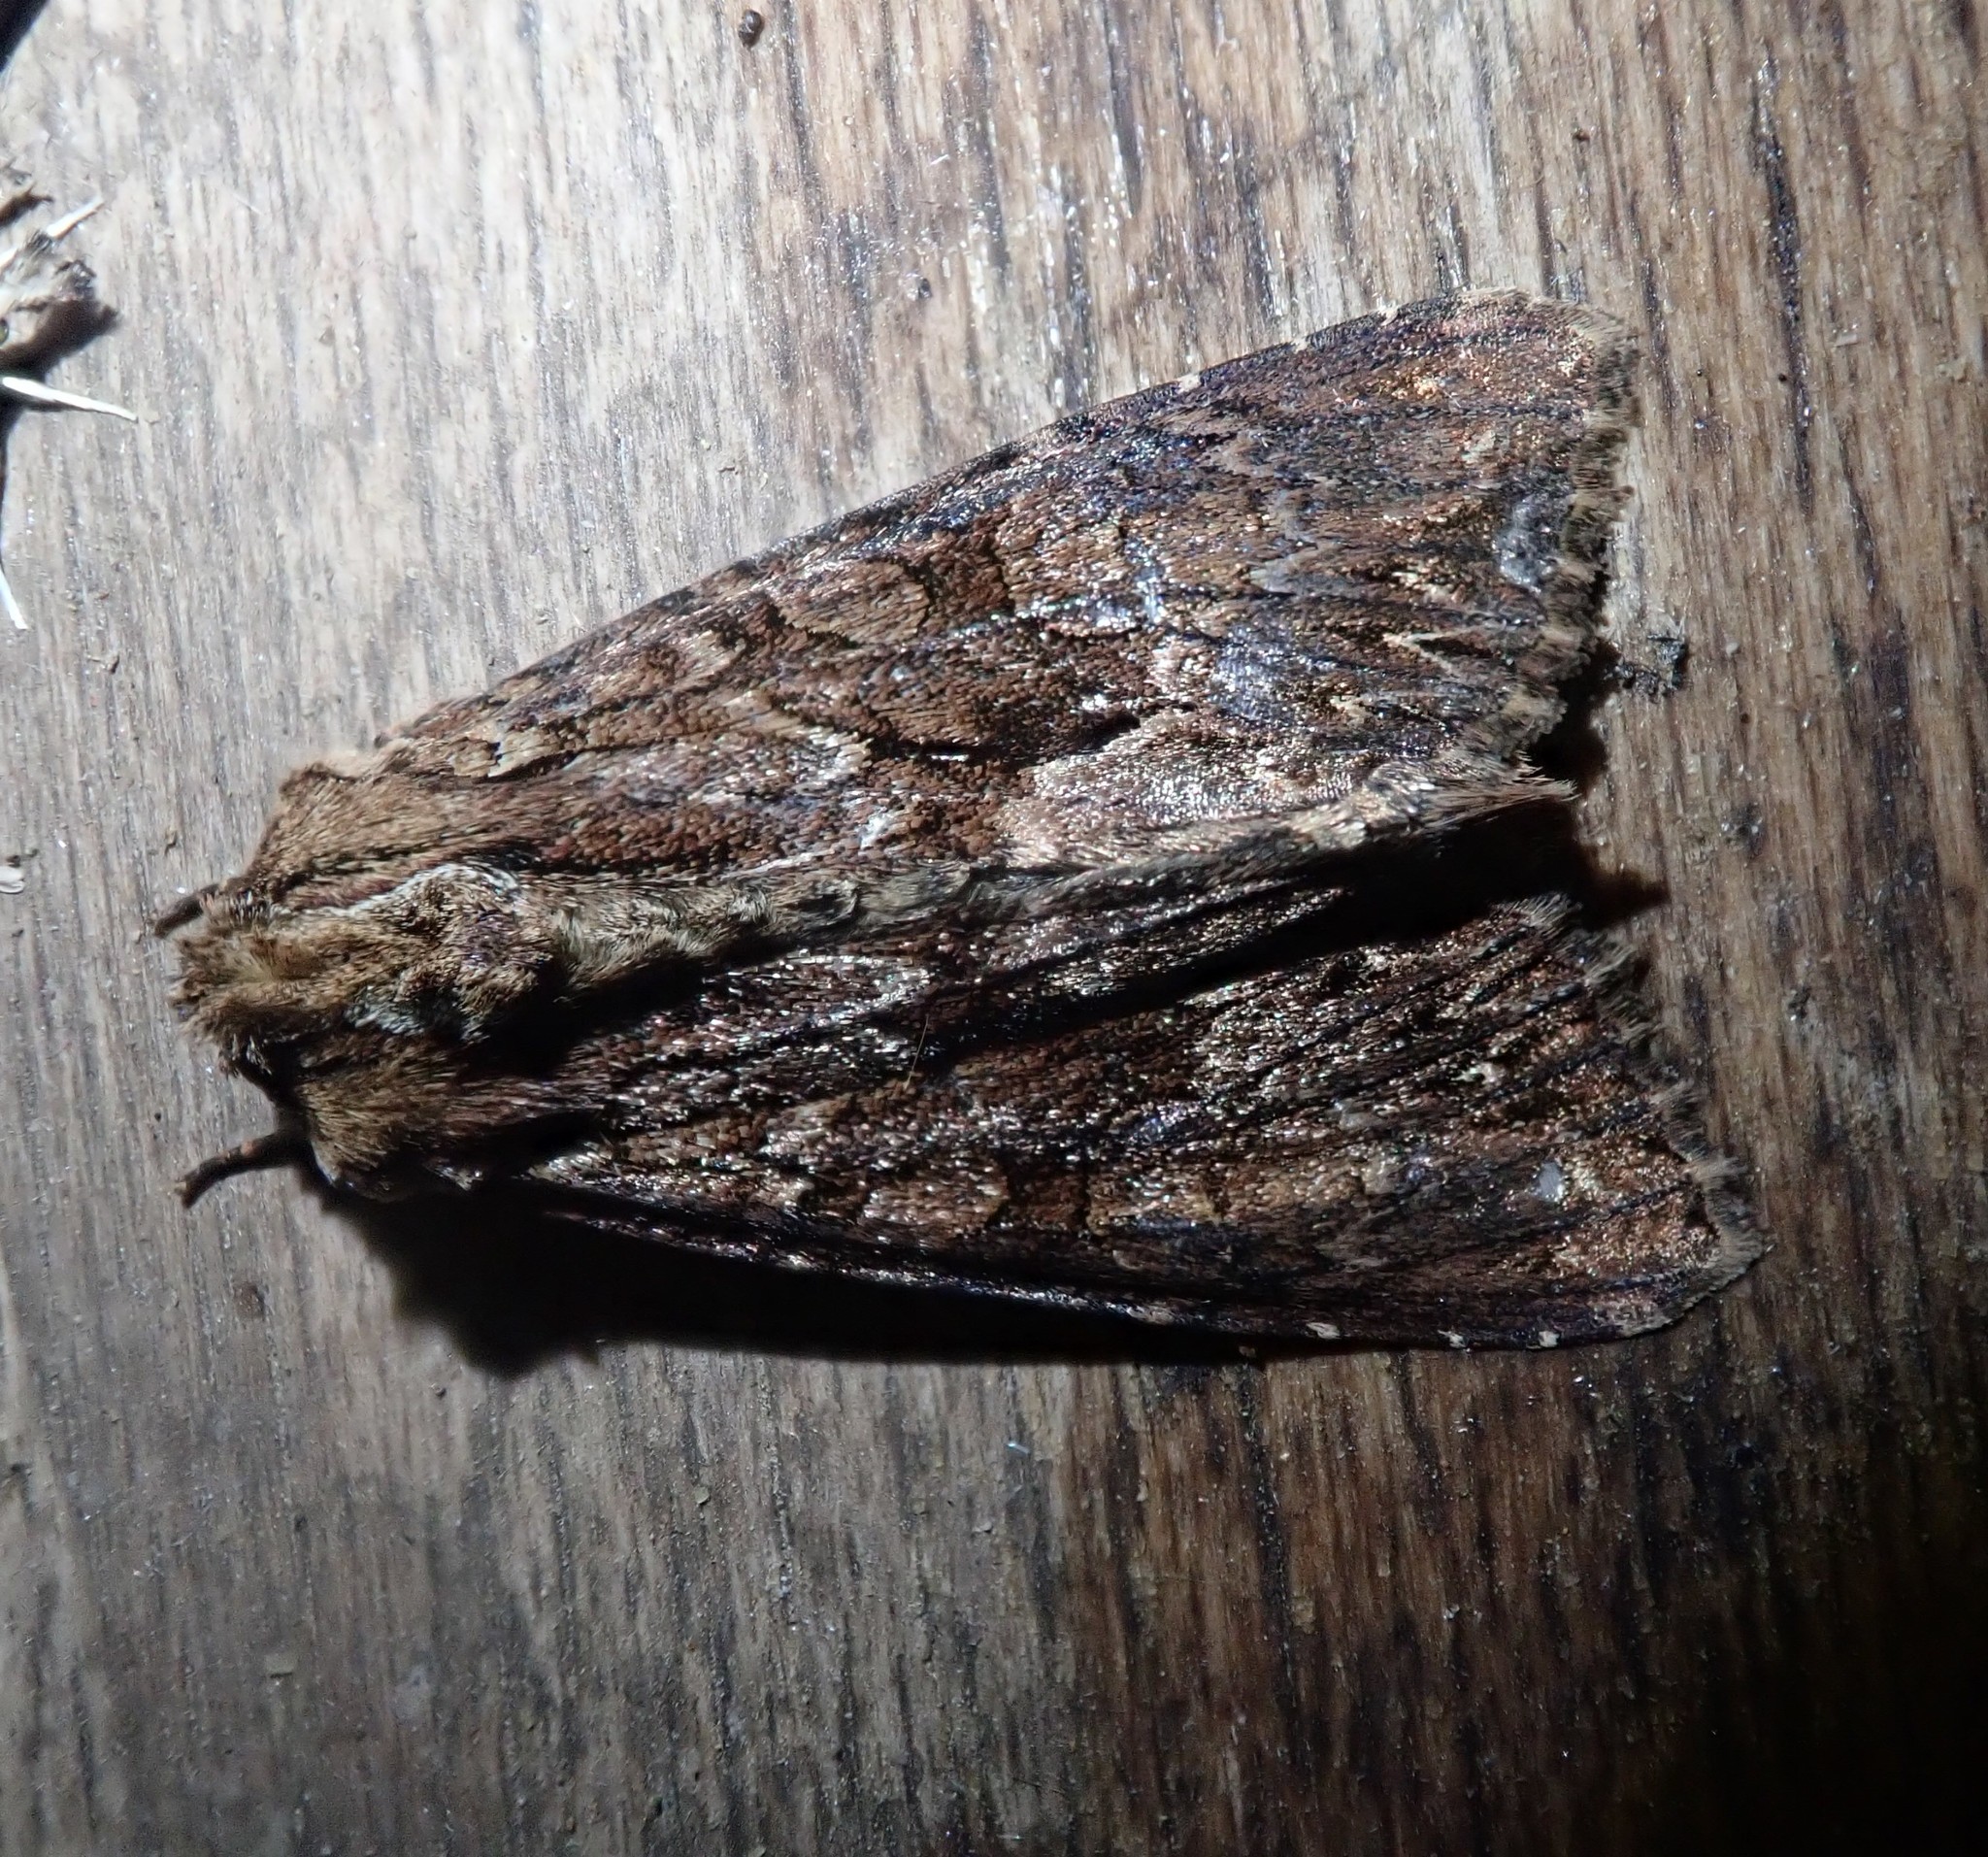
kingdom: Animalia
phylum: Arthropoda
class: Insecta
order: Lepidoptera
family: Noctuidae
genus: Apamea
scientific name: Apamea monoglypha
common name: Dark arches
